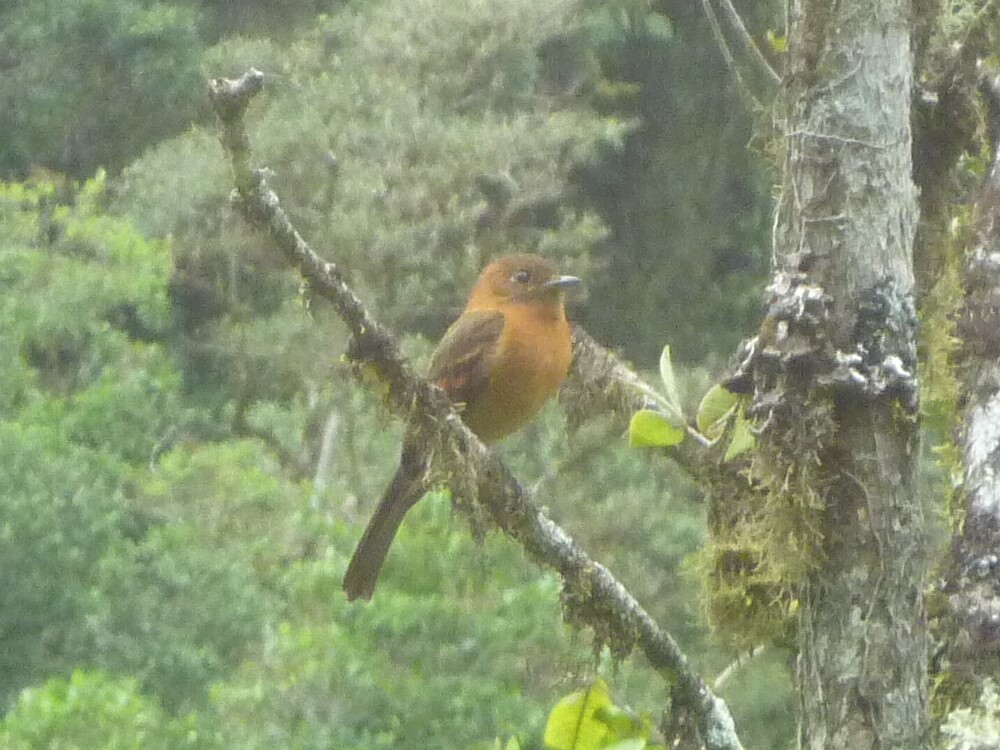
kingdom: Animalia
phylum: Chordata
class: Aves
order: Passeriformes
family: Tyrannidae
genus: Pyrrhomyias
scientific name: Pyrrhomyias cinnamomeus
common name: Cinnamon flycatcher
